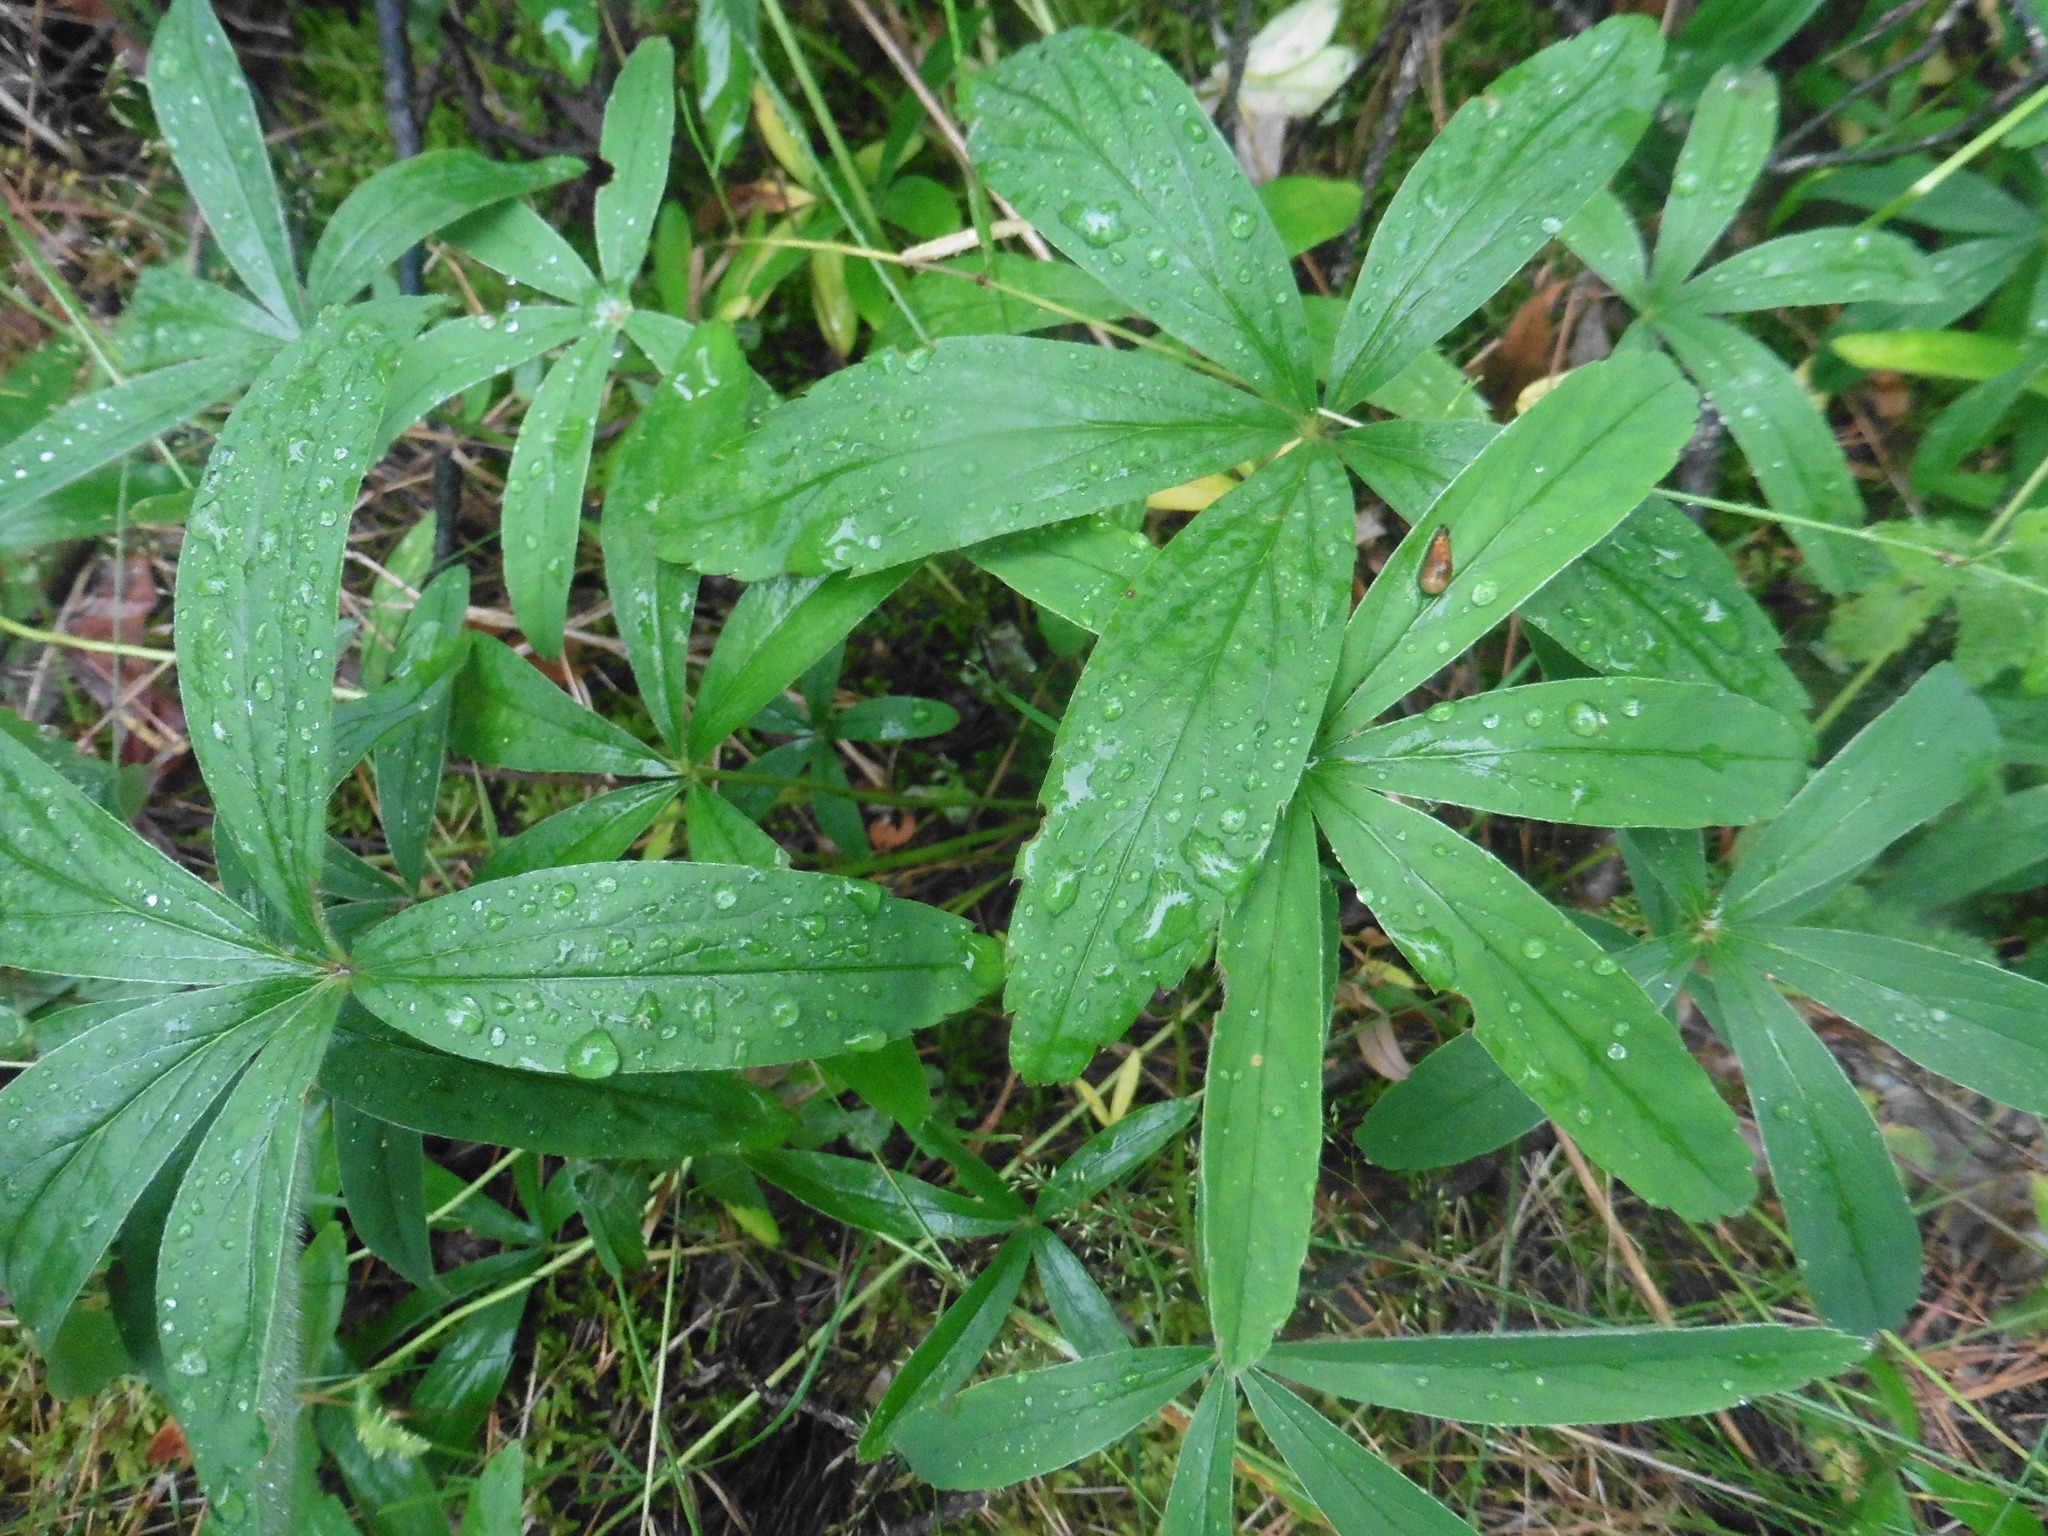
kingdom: Plantae
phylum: Tracheophyta
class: Magnoliopsida
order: Rosales
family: Rosaceae
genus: Potentilla
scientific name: Potentilla alba
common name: White cinquefoil
